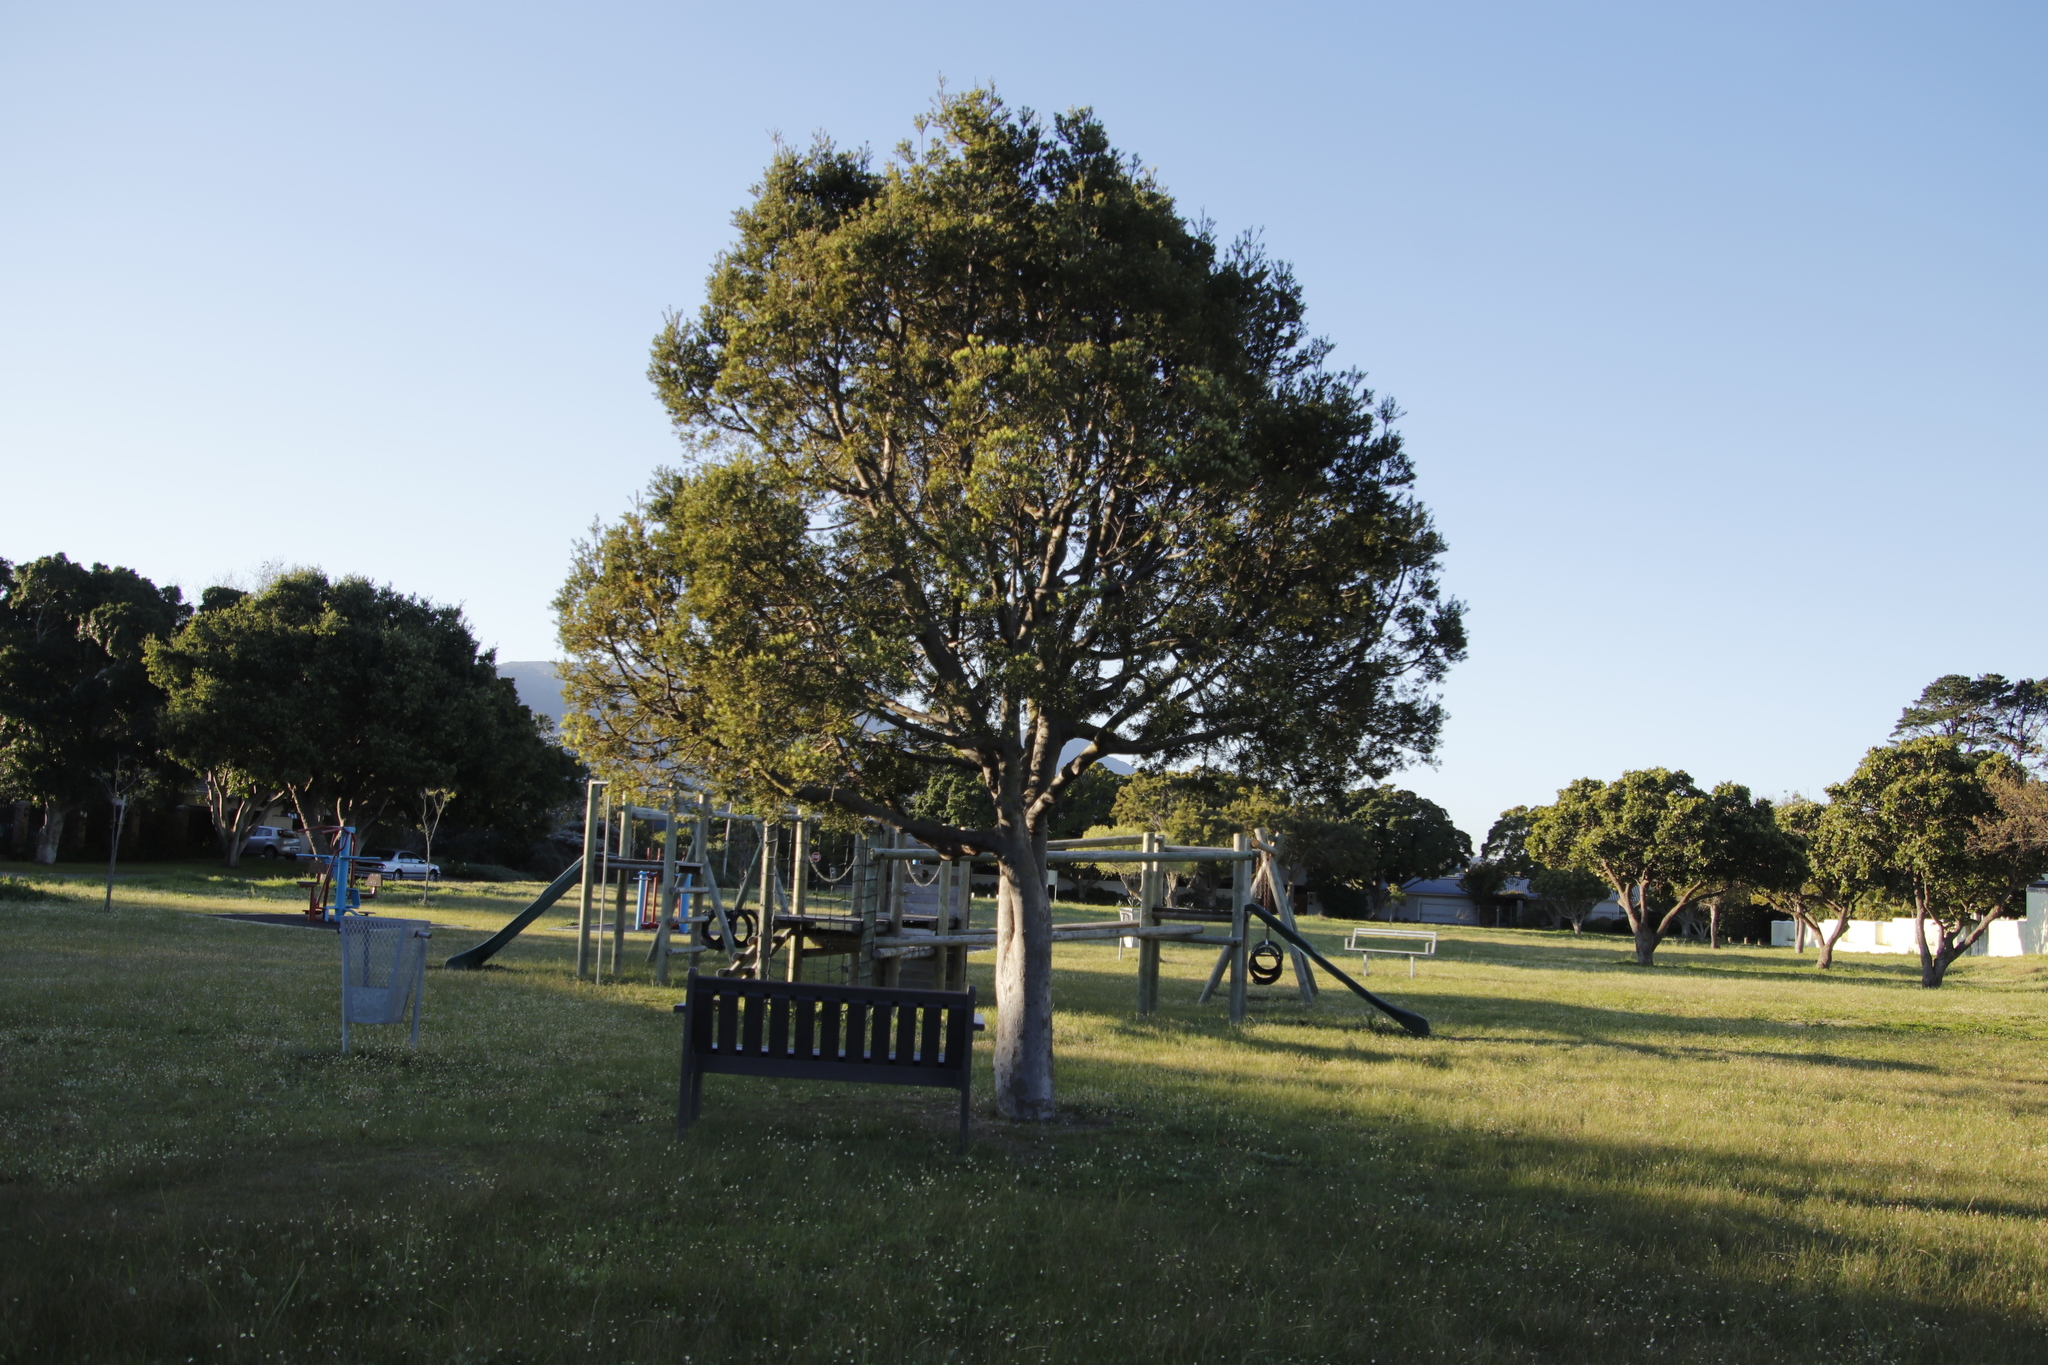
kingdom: Plantae
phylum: Tracheophyta
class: Pinopsida
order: Pinales
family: Podocarpaceae
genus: Afrocarpus
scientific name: Afrocarpus falcatus
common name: Bastard yellowwood
